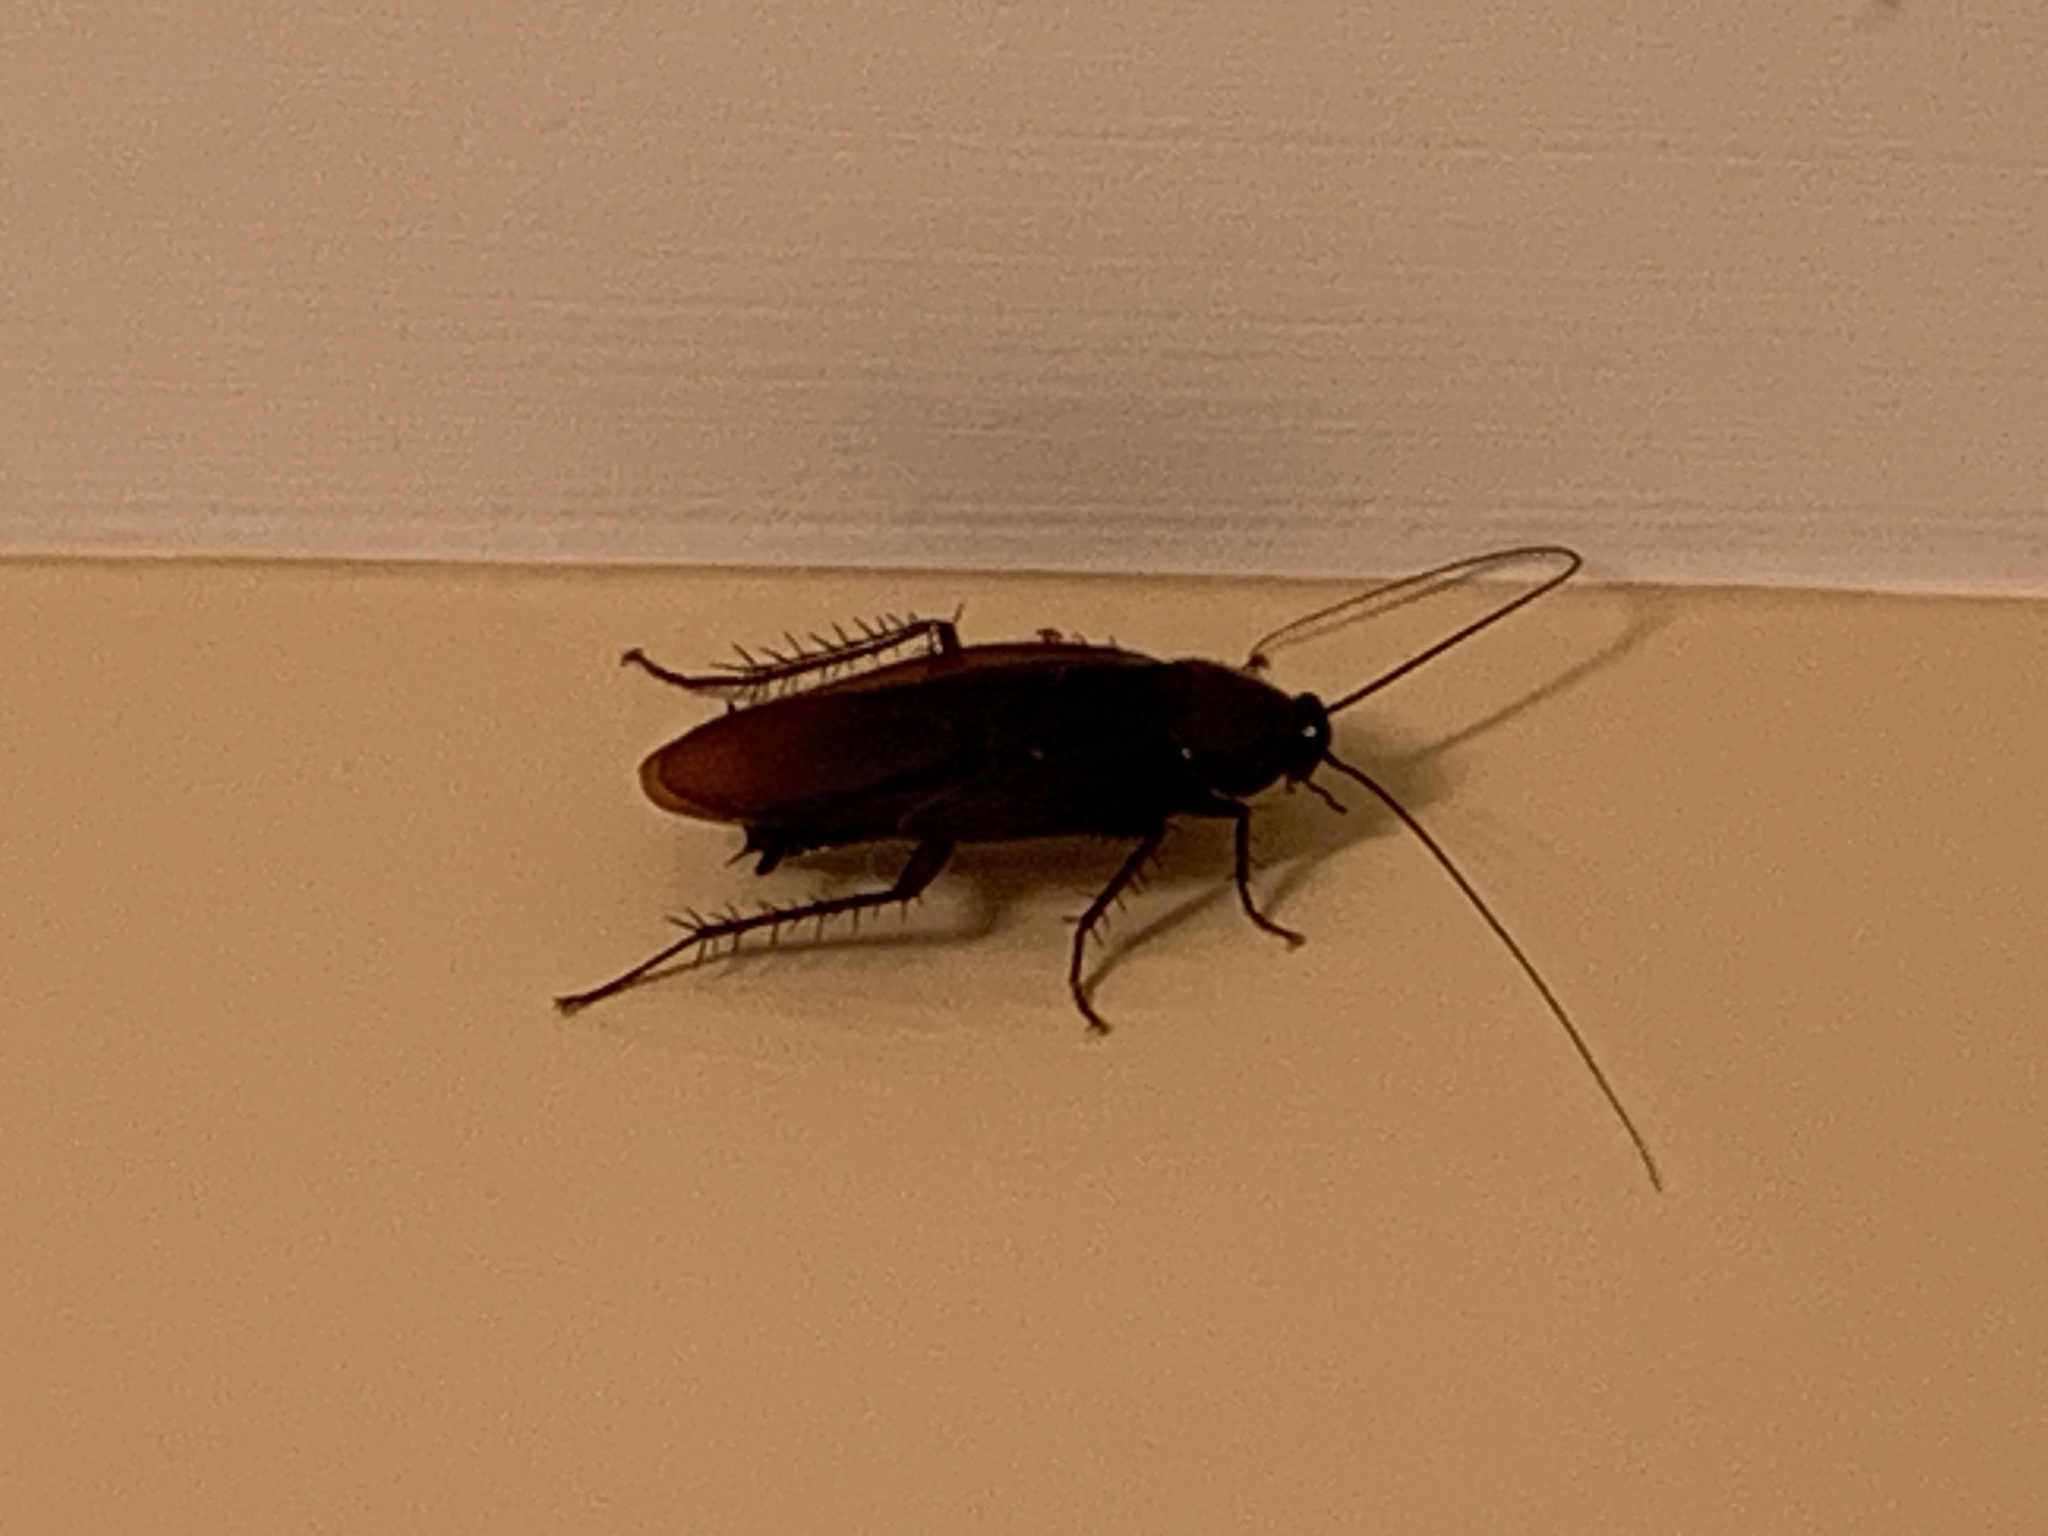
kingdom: Animalia
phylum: Arthropoda
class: Insecta
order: Blattodea
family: Blattidae
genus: Periplaneta
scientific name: Periplaneta fuliginosa
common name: Smokeybrown cockroad
